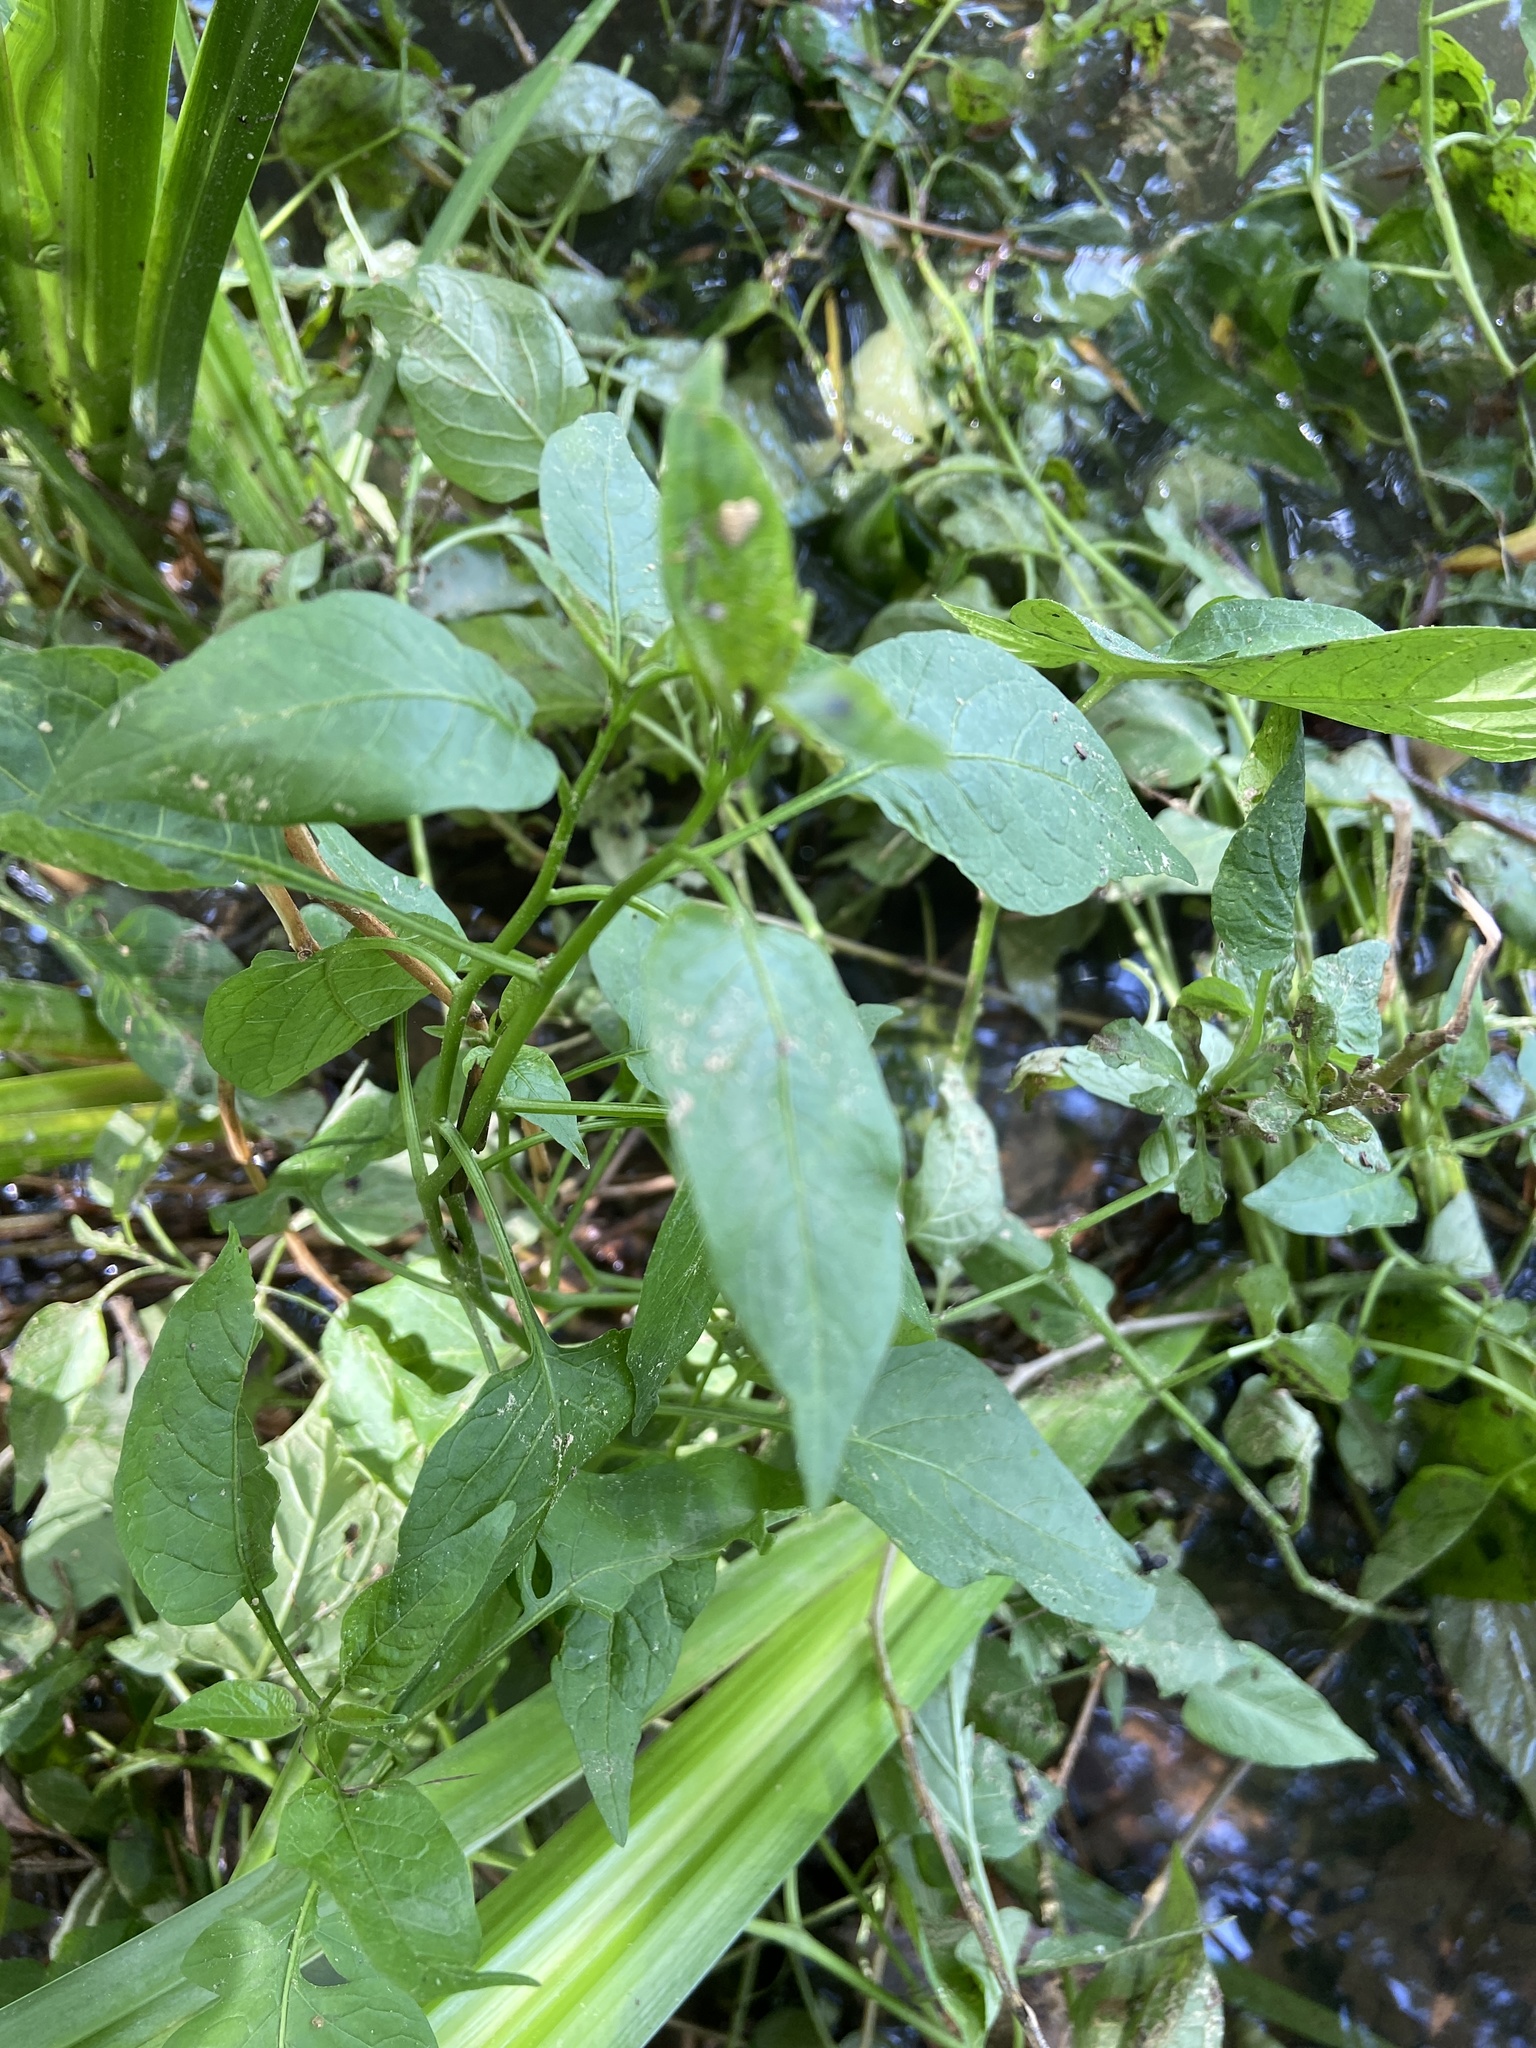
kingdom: Plantae
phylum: Tracheophyta
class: Magnoliopsida
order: Solanales
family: Solanaceae
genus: Solanum
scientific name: Solanum dulcamara
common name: Climbing nightshade
